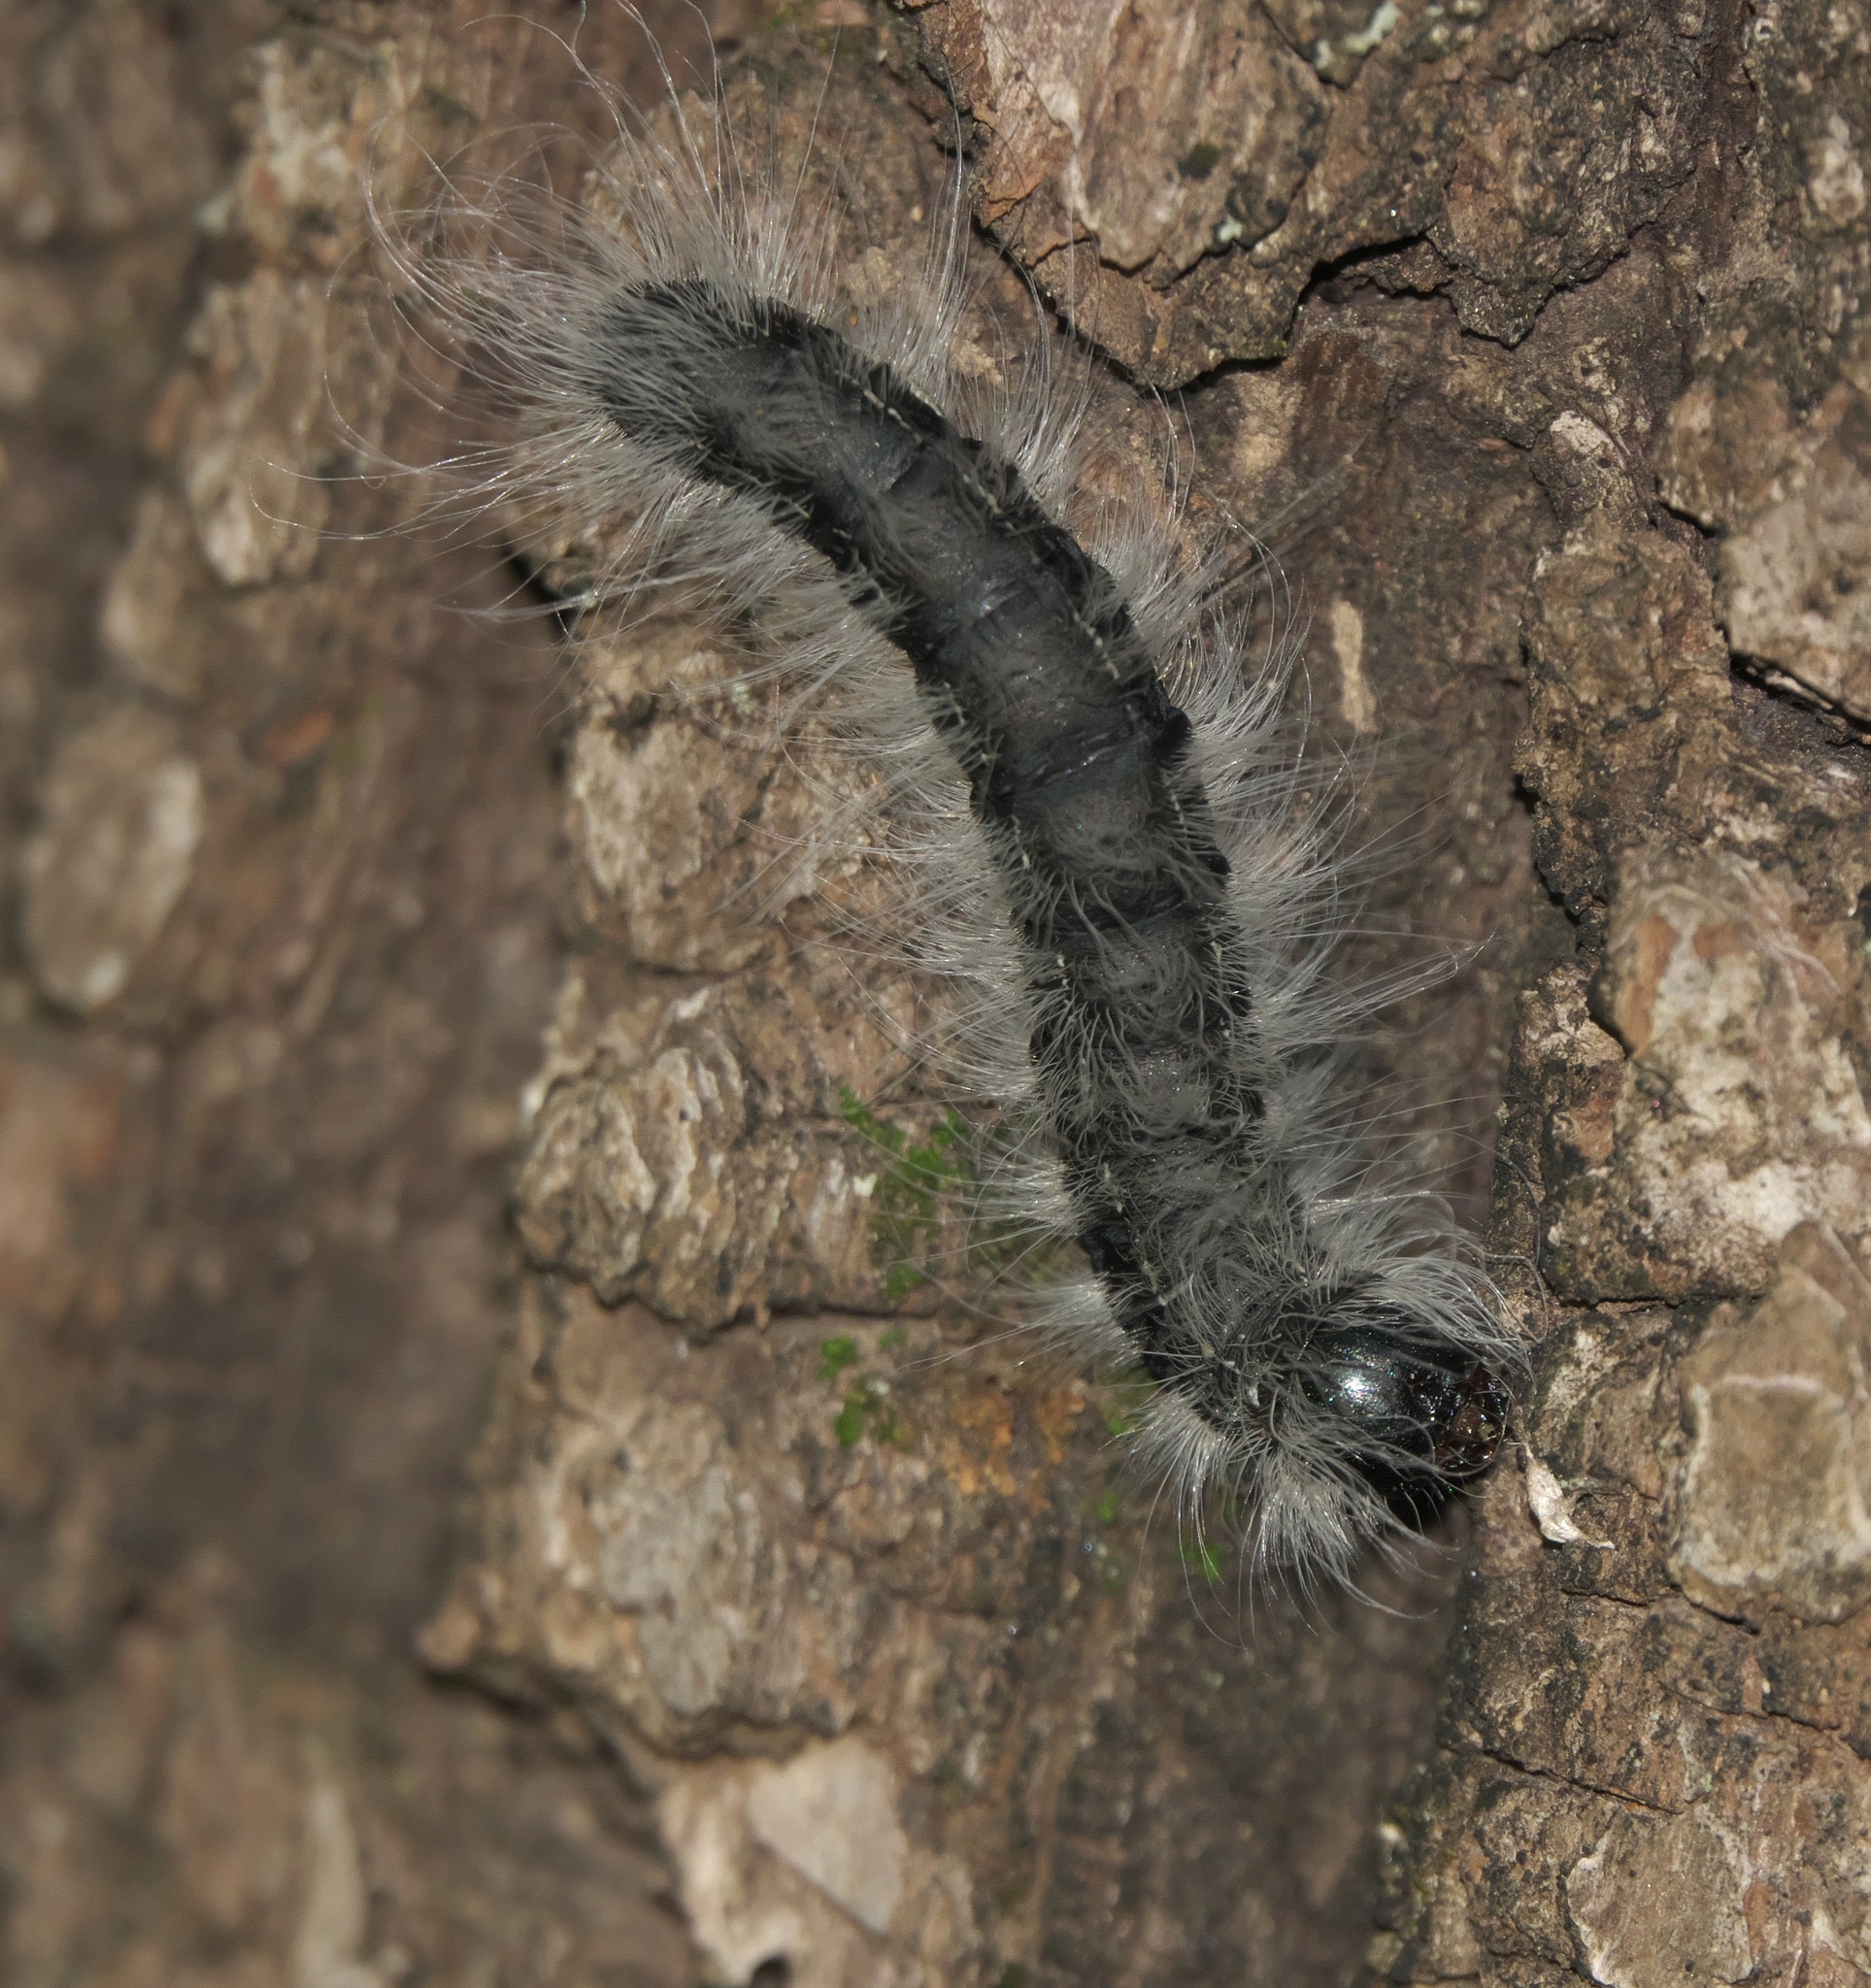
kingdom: Animalia
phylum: Arthropoda
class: Insecta
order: Lepidoptera
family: Notodontidae
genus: Datana
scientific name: Datana integerrima
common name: Walnut caterpillar
